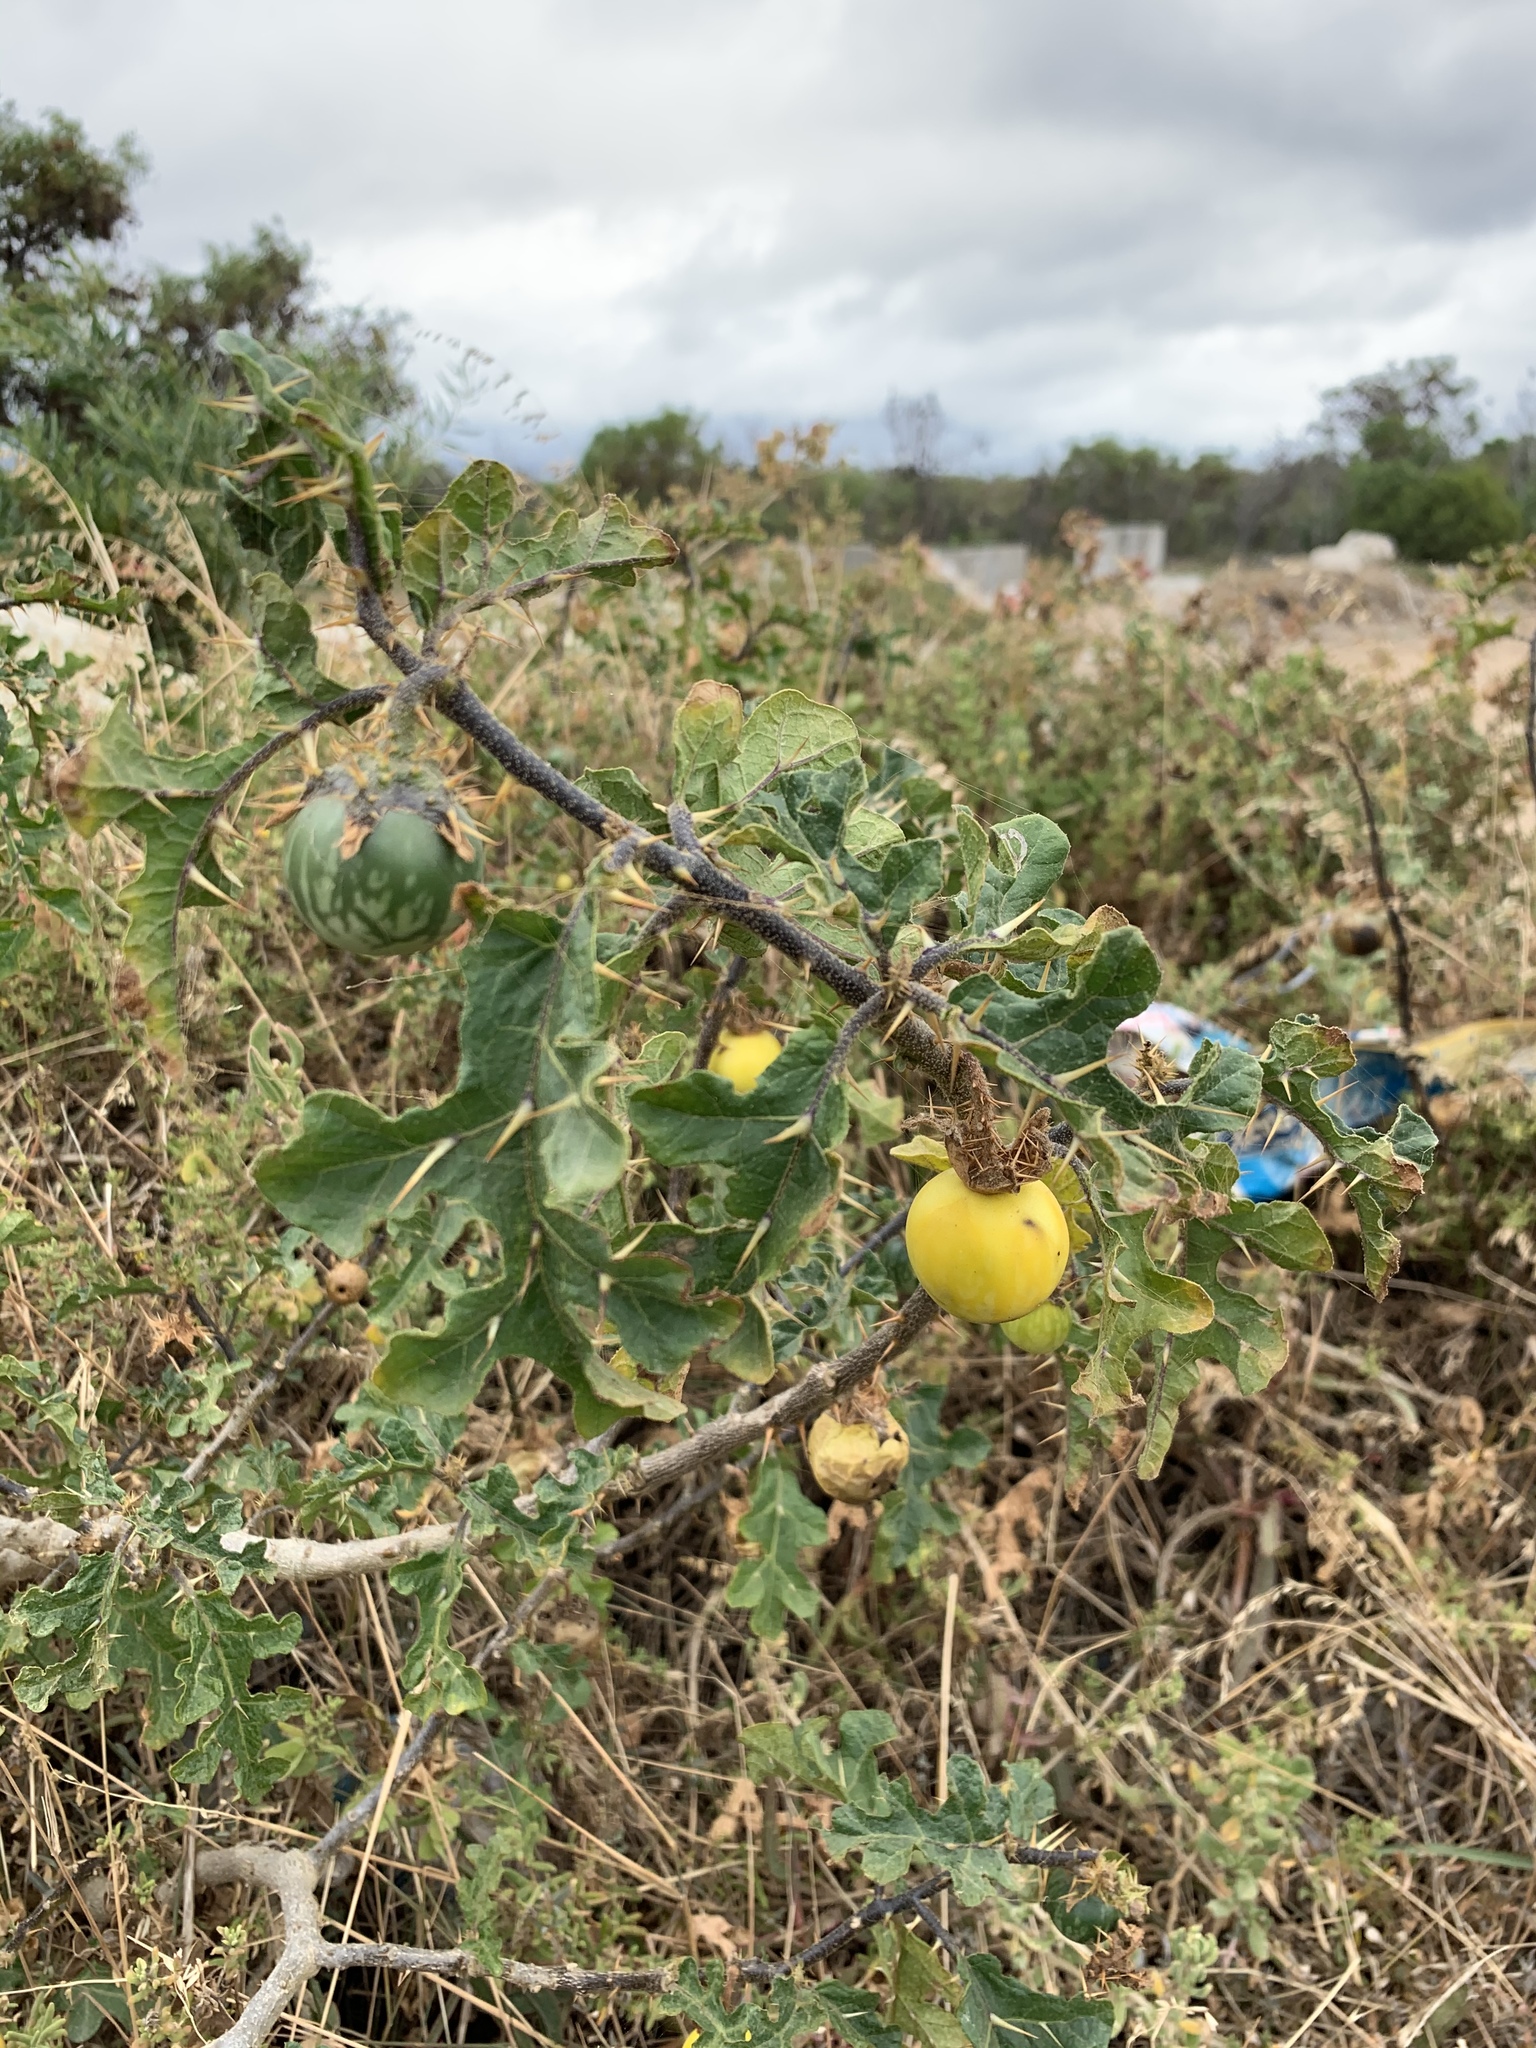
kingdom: Plantae
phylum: Tracheophyta
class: Magnoliopsida
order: Solanales
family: Solanaceae
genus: Solanum
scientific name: Solanum linnaeanum
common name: Nightshade
